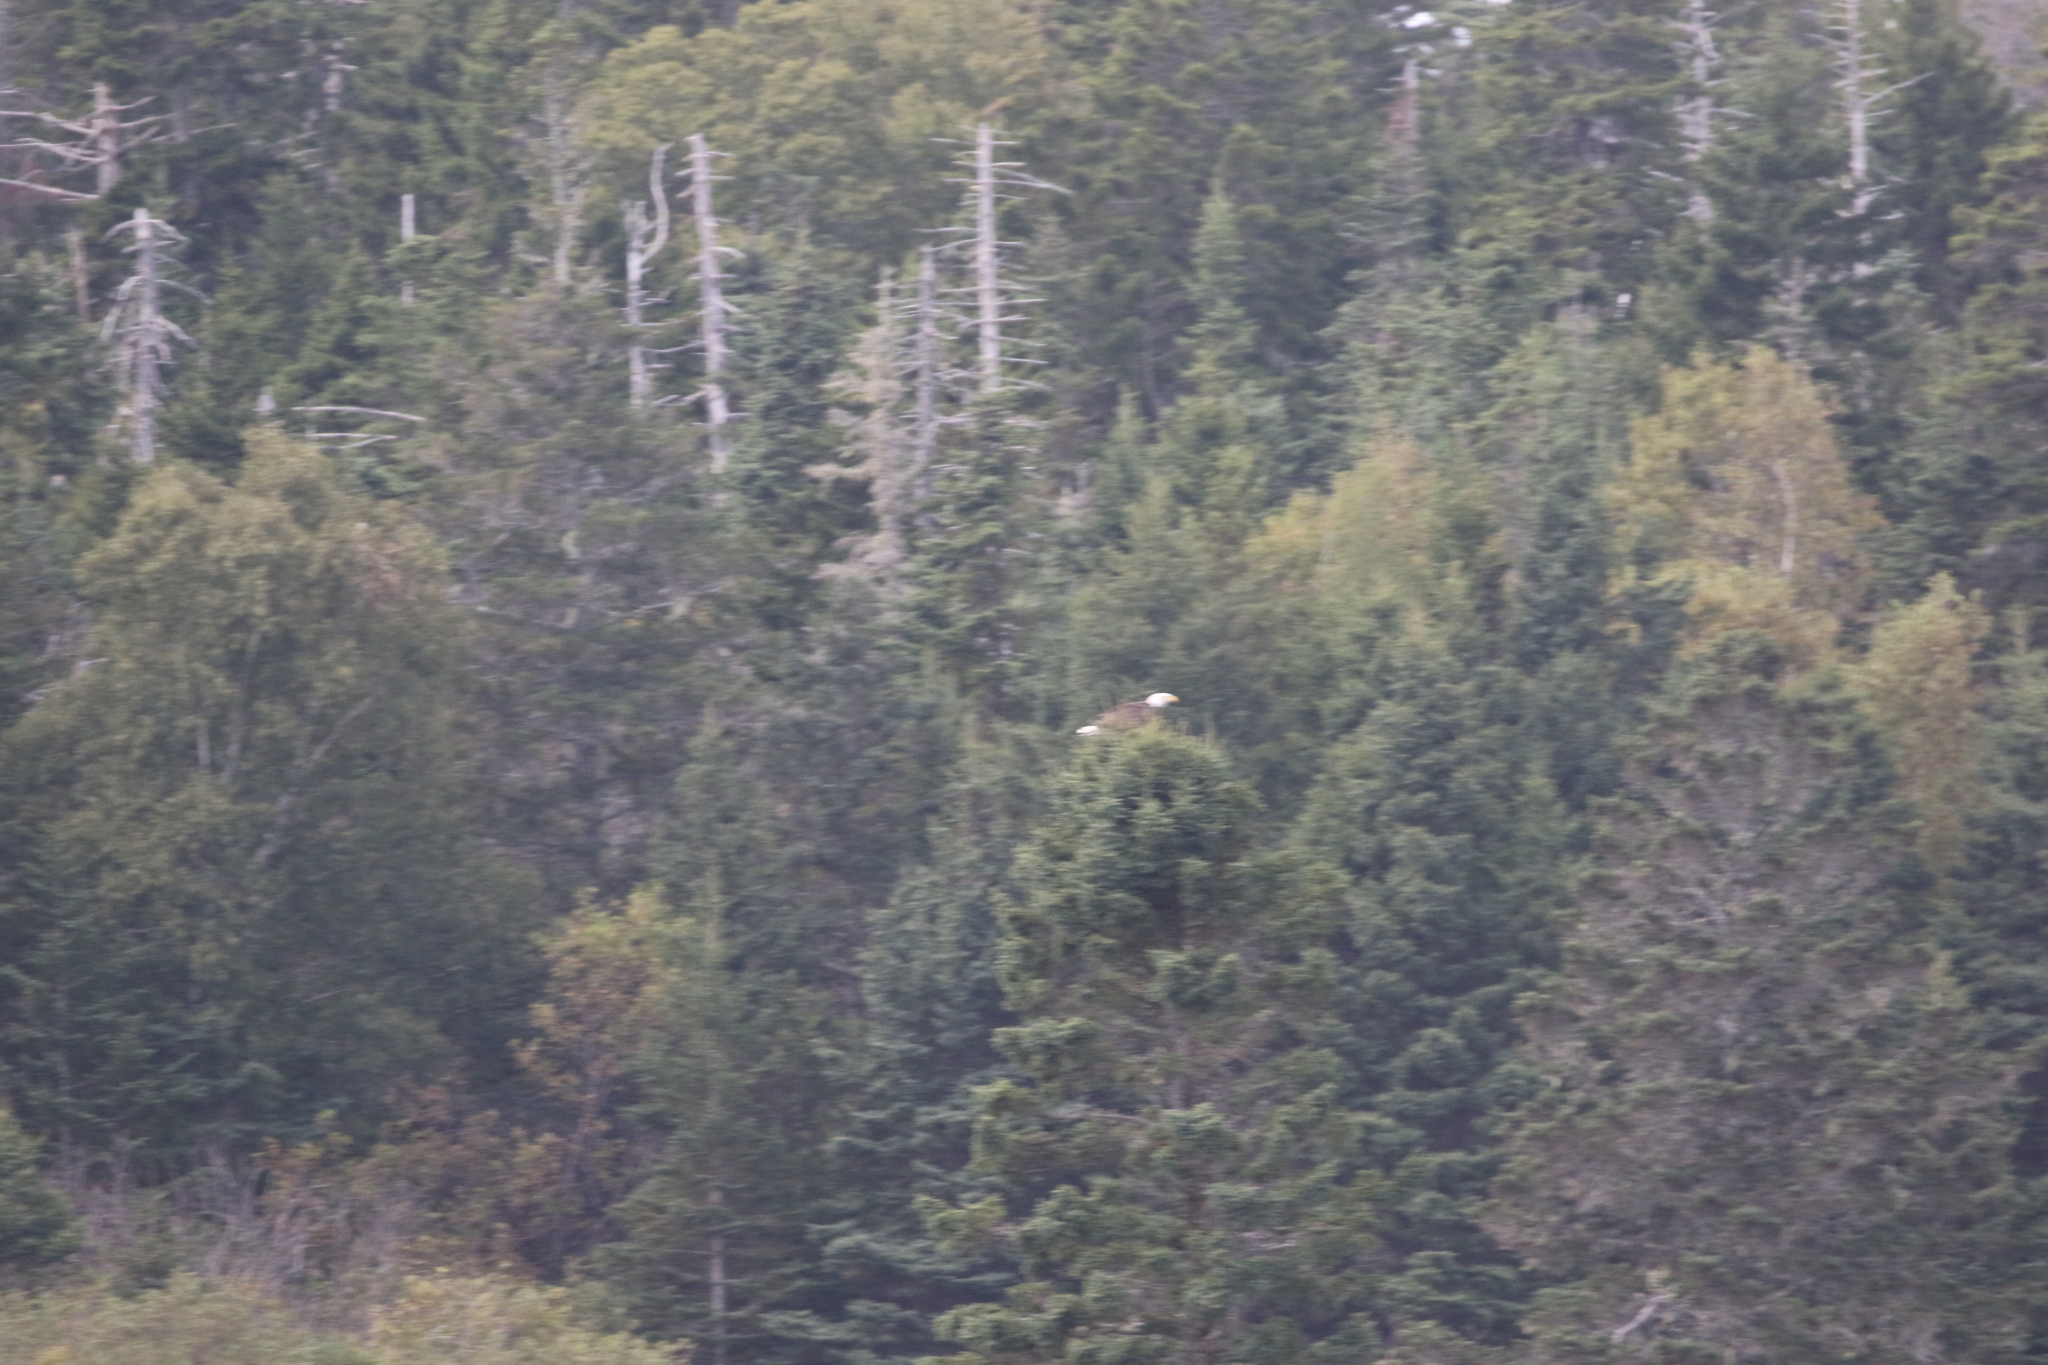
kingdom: Animalia
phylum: Chordata
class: Aves
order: Accipitriformes
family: Accipitridae
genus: Haliaeetus
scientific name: Haliaeetus leucocephalus
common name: Bald eagle
